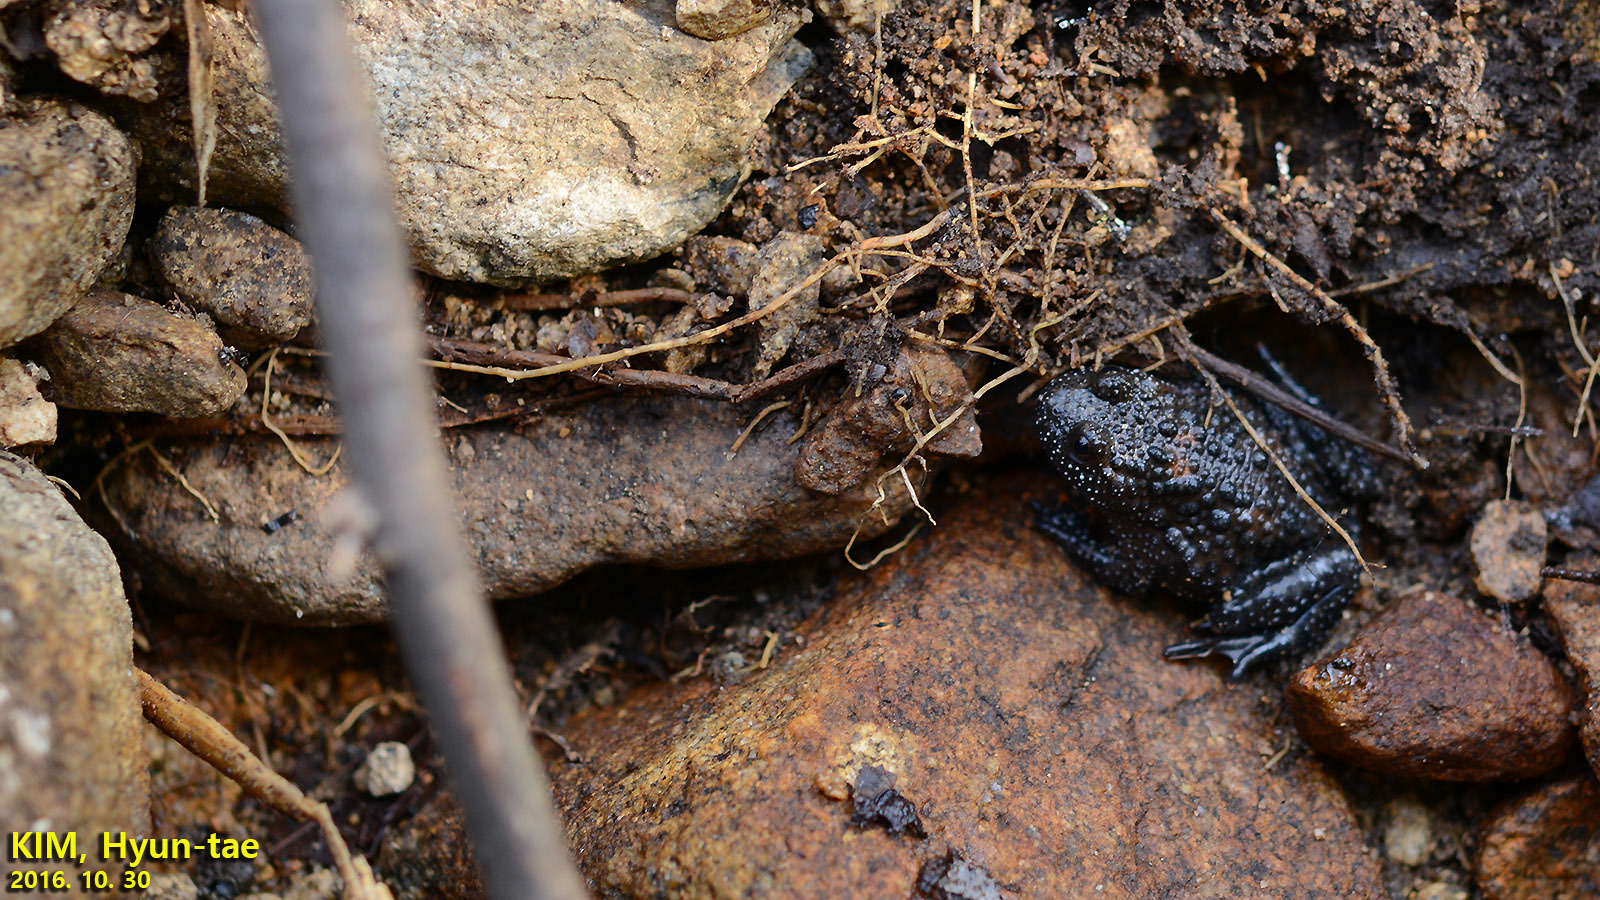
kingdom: Animalia
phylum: Chordata
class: Amphibia
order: Anura
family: Bombinatoridae
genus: Bombina
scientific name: Bombina orientalis
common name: Oriental firebelly toad
